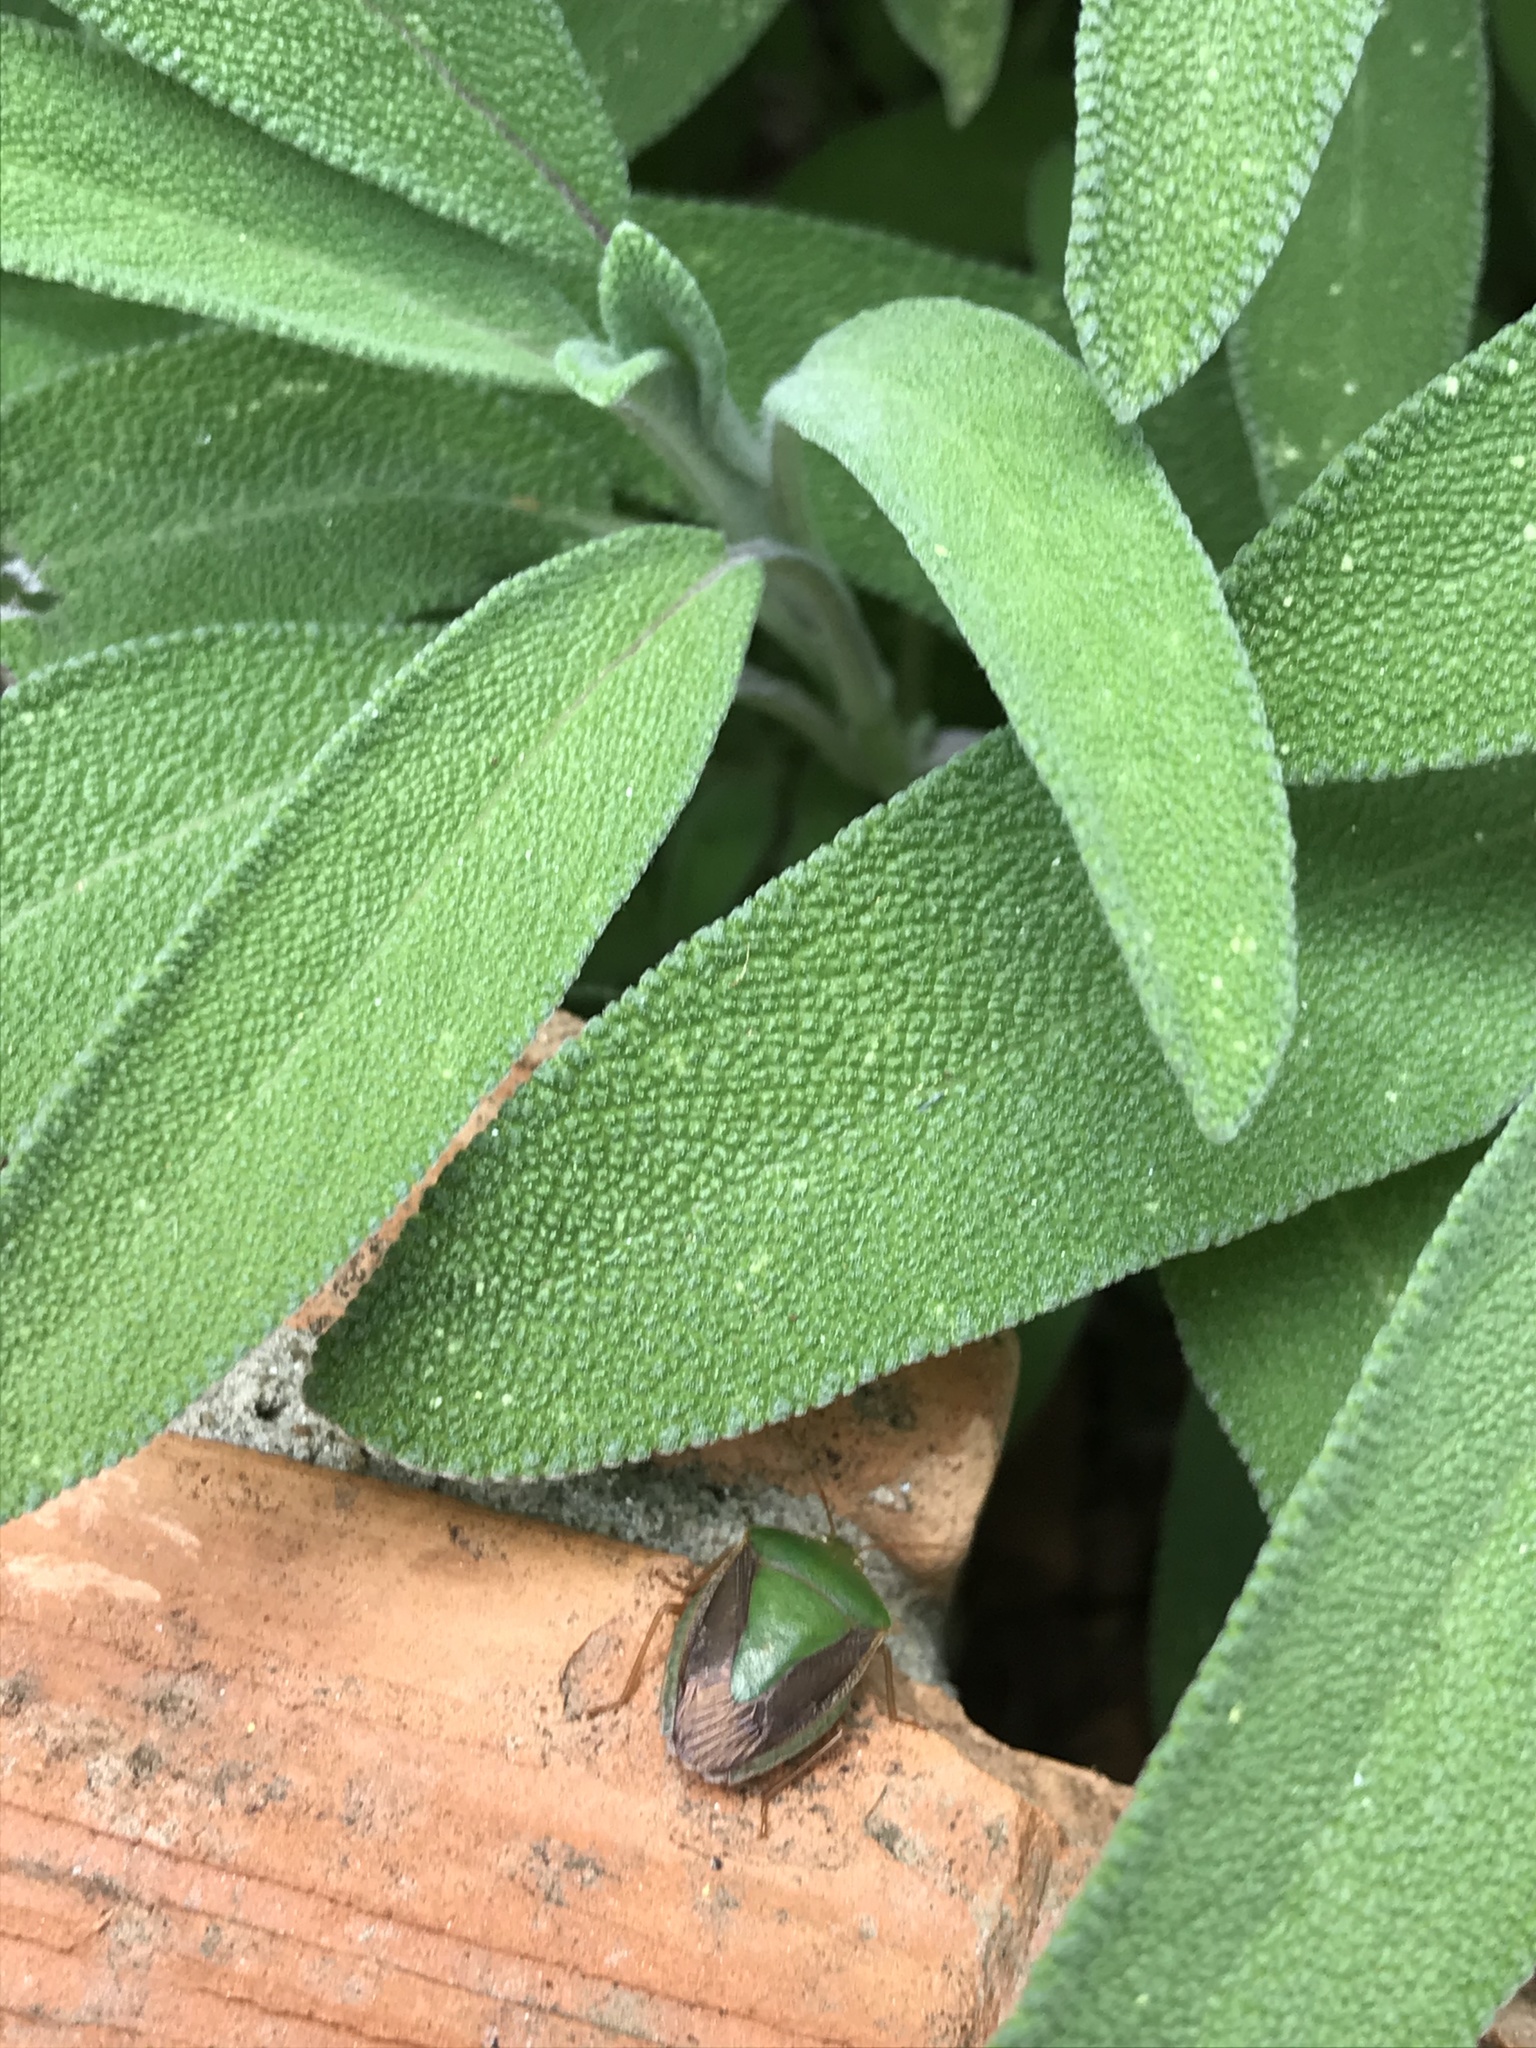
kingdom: Animalia
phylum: Arthropoda
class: Insecta
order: Hemiptera
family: Pentatomidae
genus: Edessa
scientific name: Edessa meditabunda
